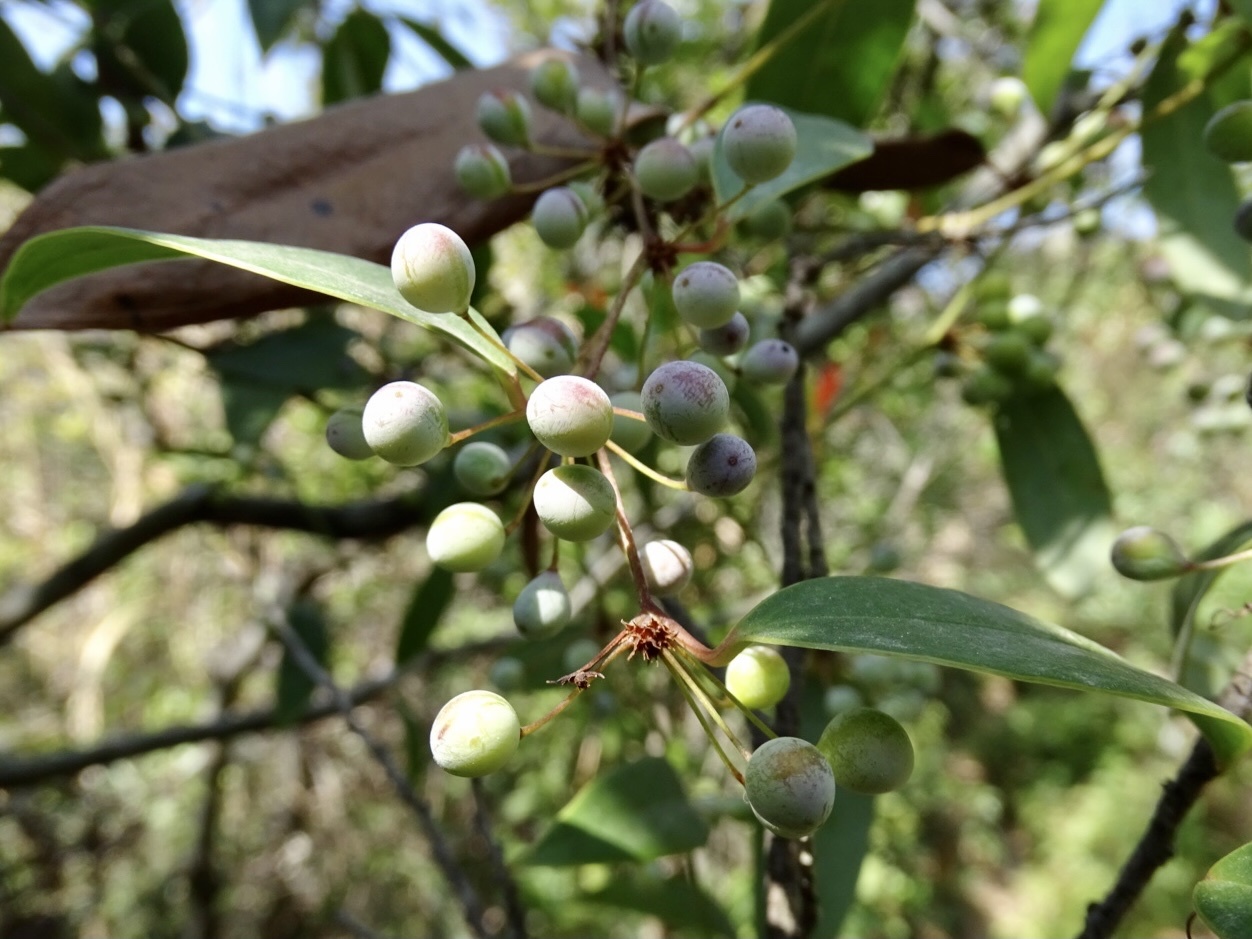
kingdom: Plantae
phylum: Tracheophyta
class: Liliopsida
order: Liliales
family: Smilacaceae
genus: Smilax
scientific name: Smilax glabra
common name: Chinese smilax
